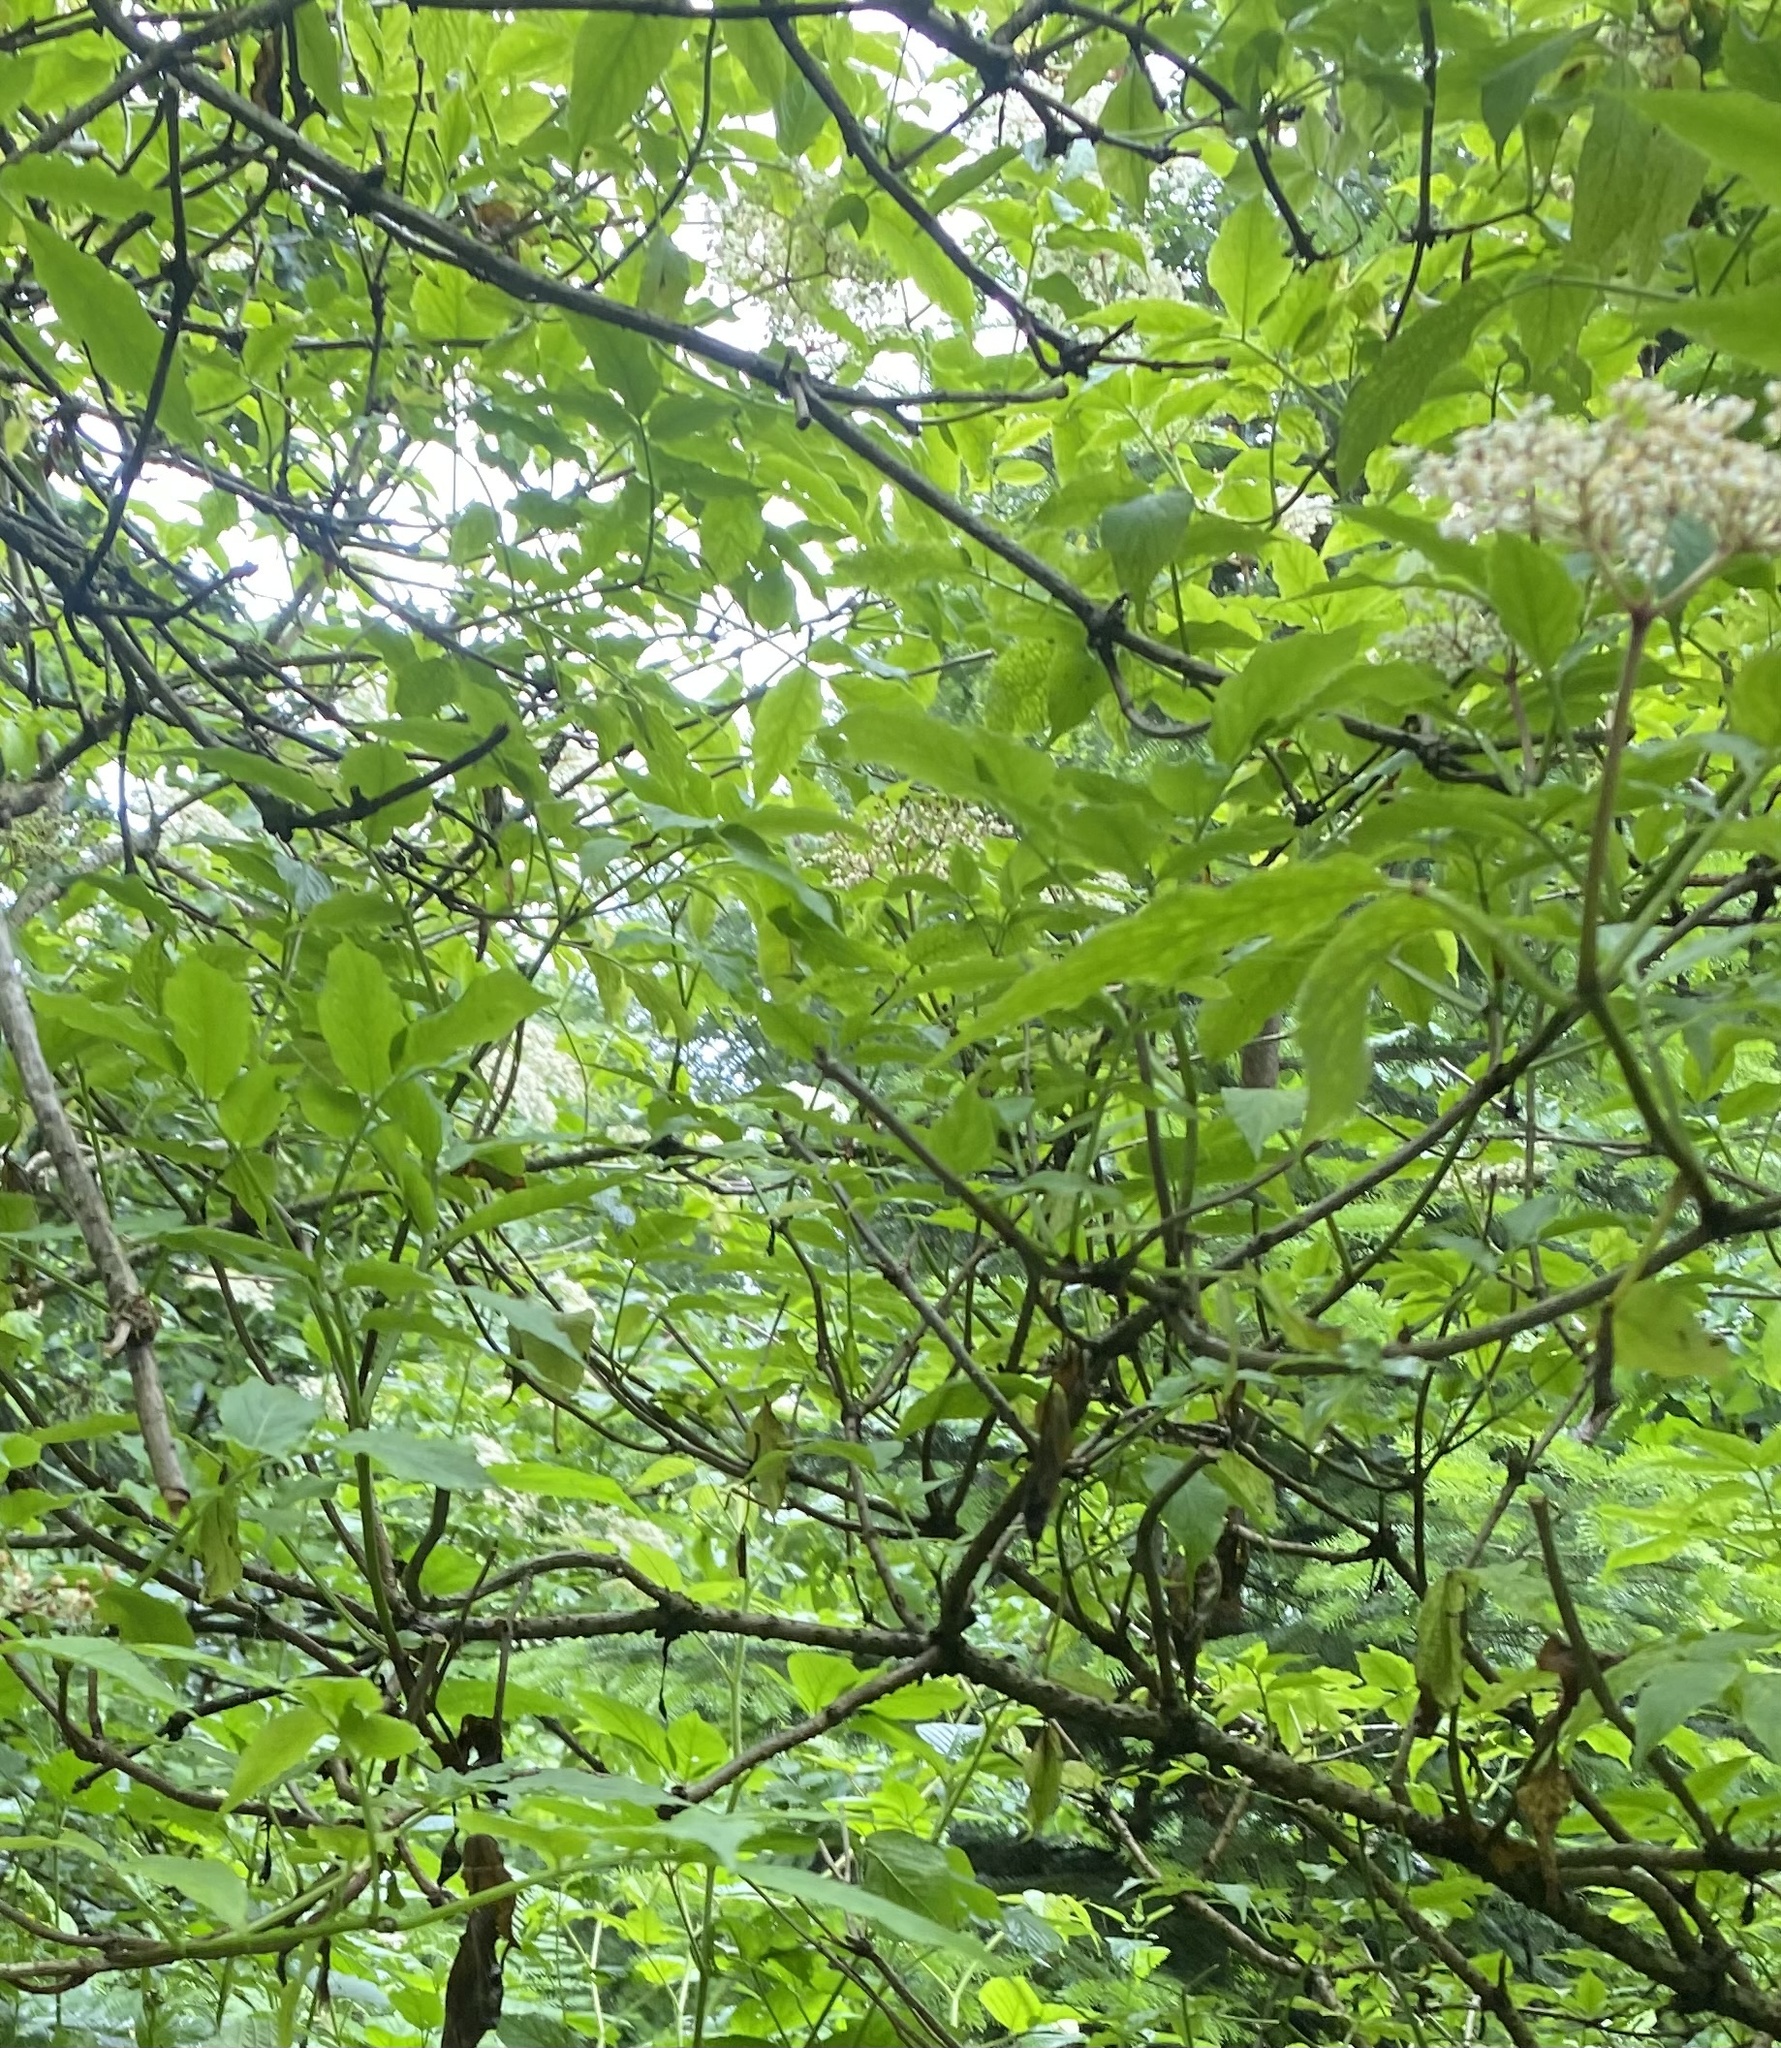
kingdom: Plantae
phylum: Tracheophyta
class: Magnoliopsida
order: Dipsacales
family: Viburnaceae
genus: Sambucus
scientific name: Sambucus nigra
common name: Elder
